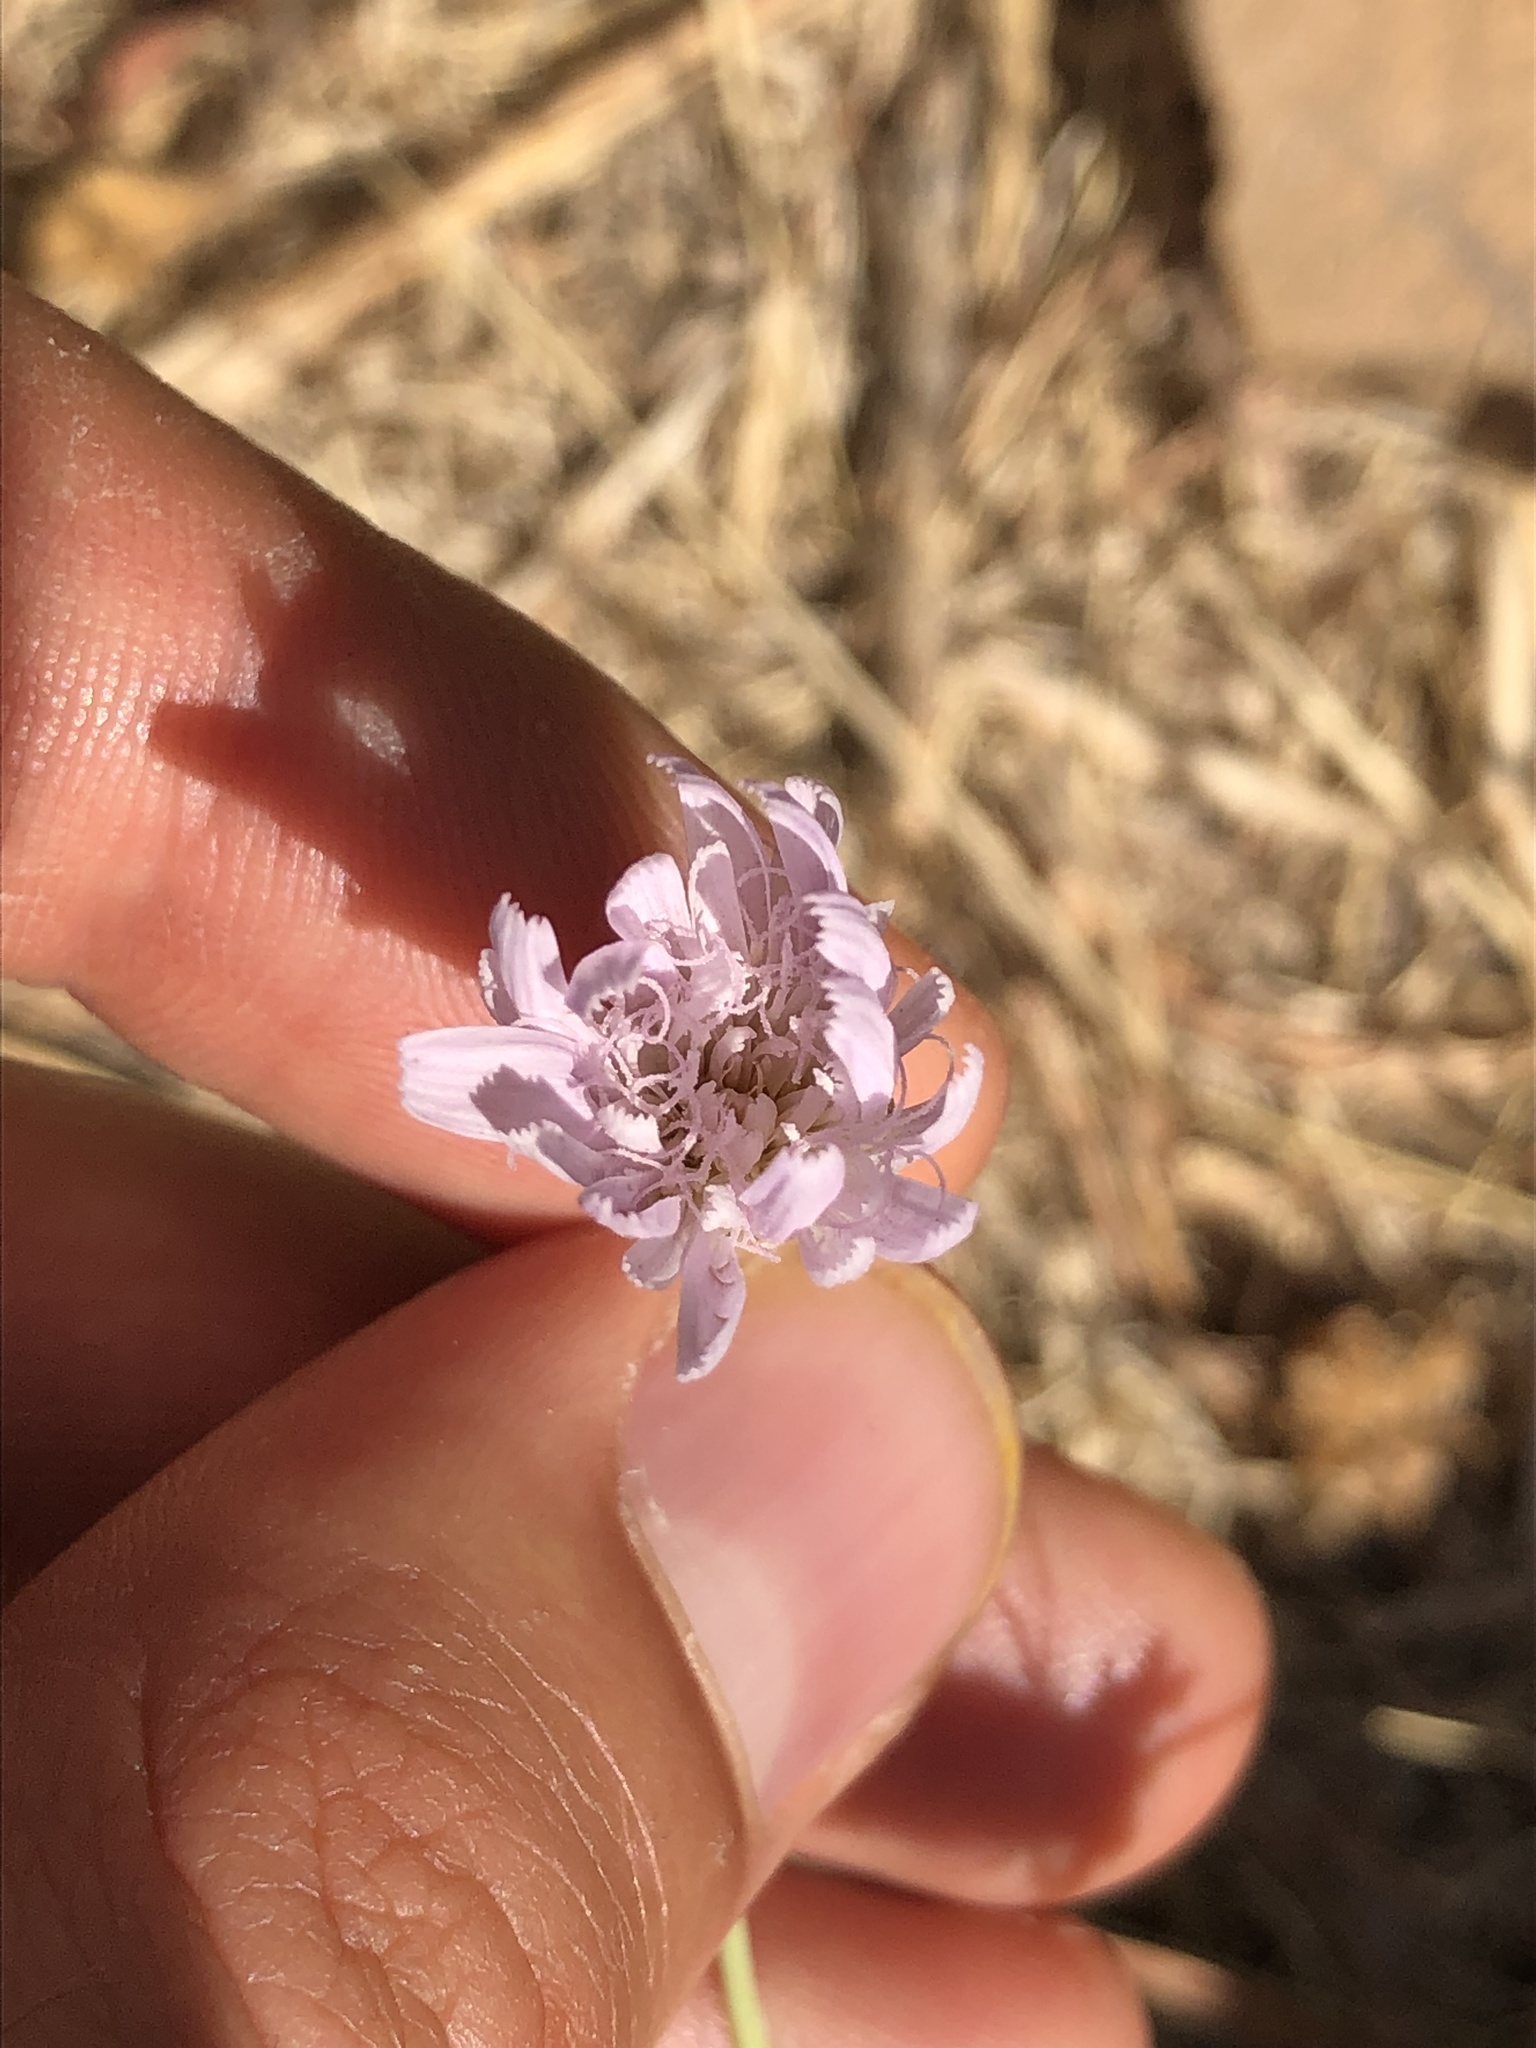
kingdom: Plantae
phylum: Tracheophyta
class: Magnoliopsida
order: Asterales
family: Asteraceae
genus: Pinaropappus
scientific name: Pinaropappus roseus
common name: Rock-lettuce
